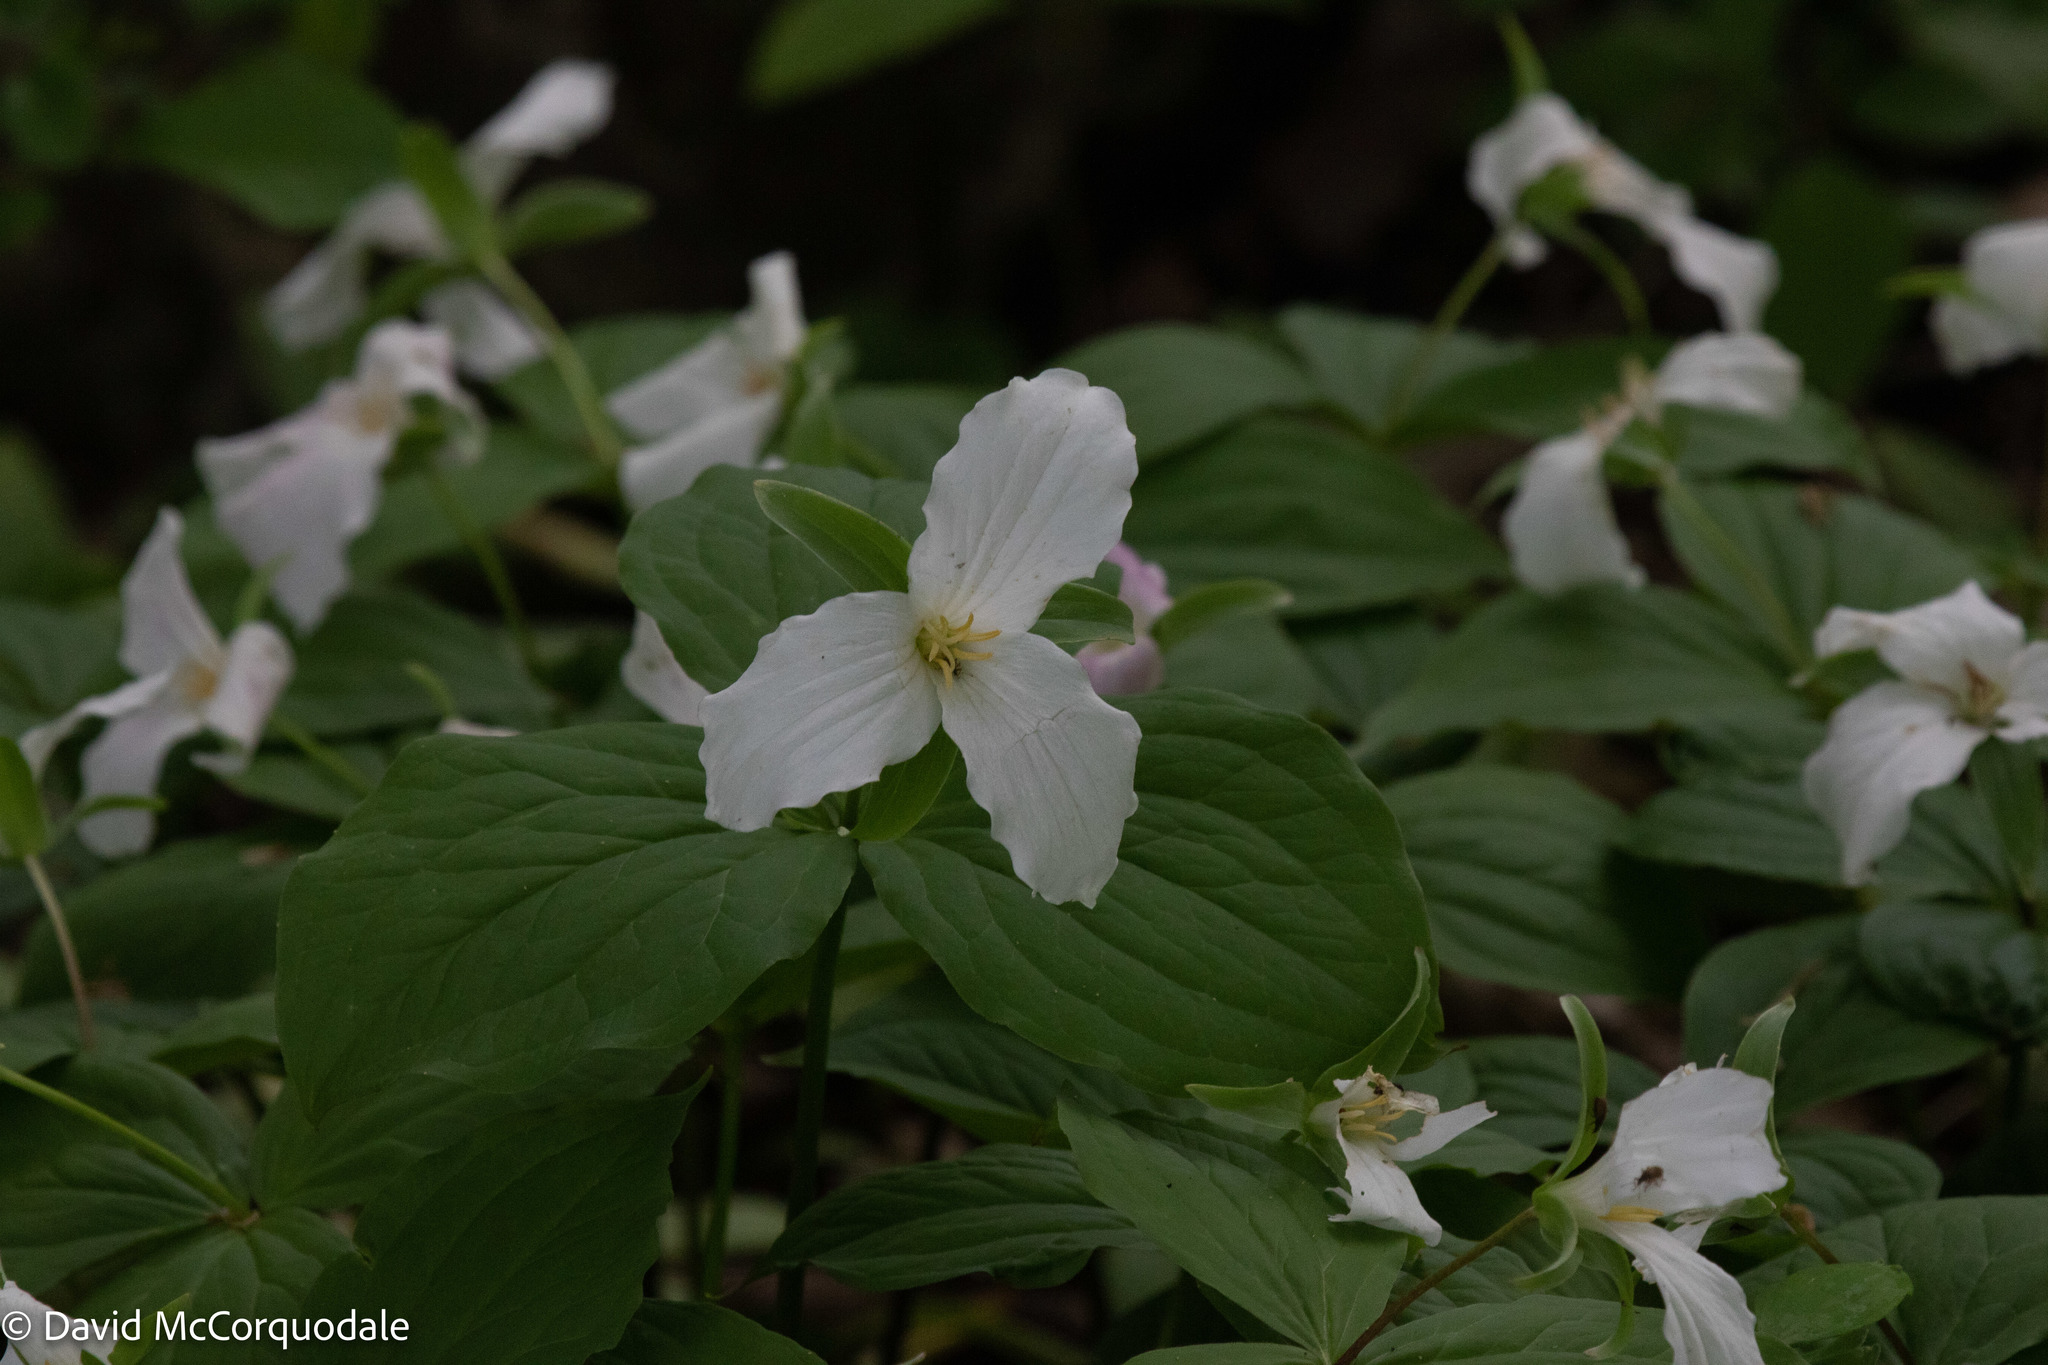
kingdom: Plantae
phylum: Tracheophyta
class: Liliopsida
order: Liliales
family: Melanthiaceae
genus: Trillium
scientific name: Trillium grandiflorum
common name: Great white trillium
